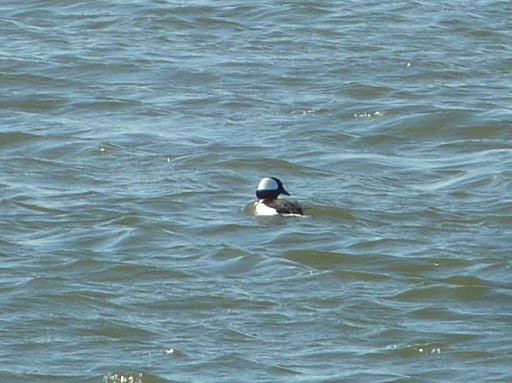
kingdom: Animalia
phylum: Chordata
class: Aves
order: Anseriformes
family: Anatidae
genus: Bucephala
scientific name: Bucephala albeola
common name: Bufflehead
